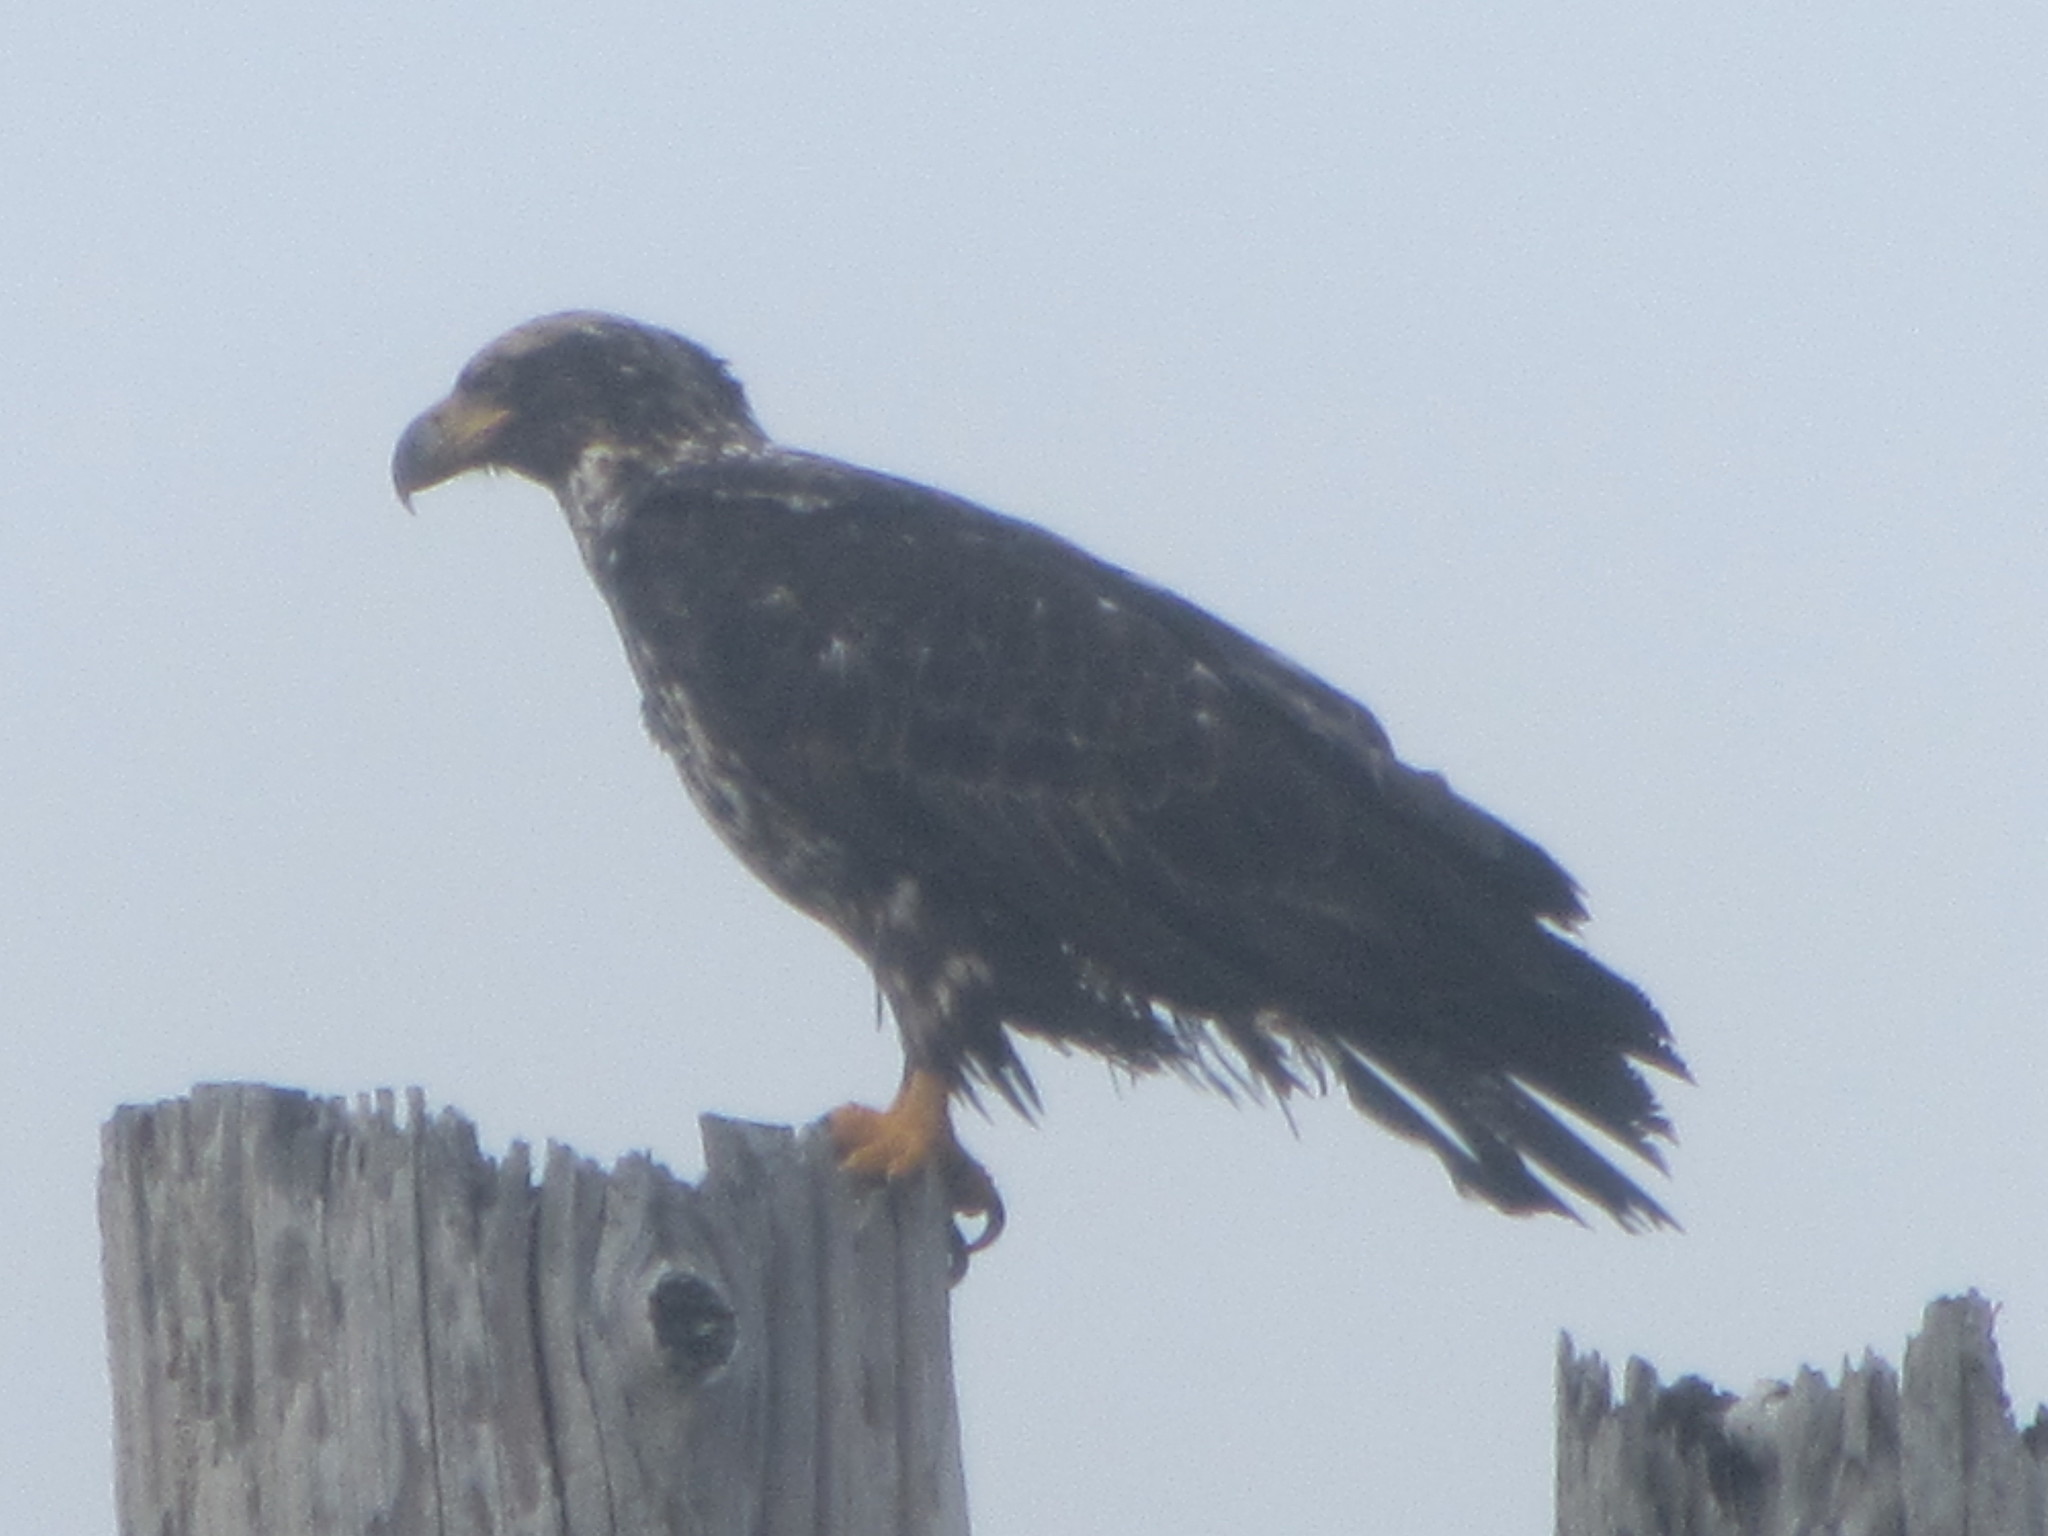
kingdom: Animalia
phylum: Chordata
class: Aves
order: Accipitriformes
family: Accipitridae
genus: Haliaeetus
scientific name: Haliaeetus leucocephalus
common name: Bald eagle
